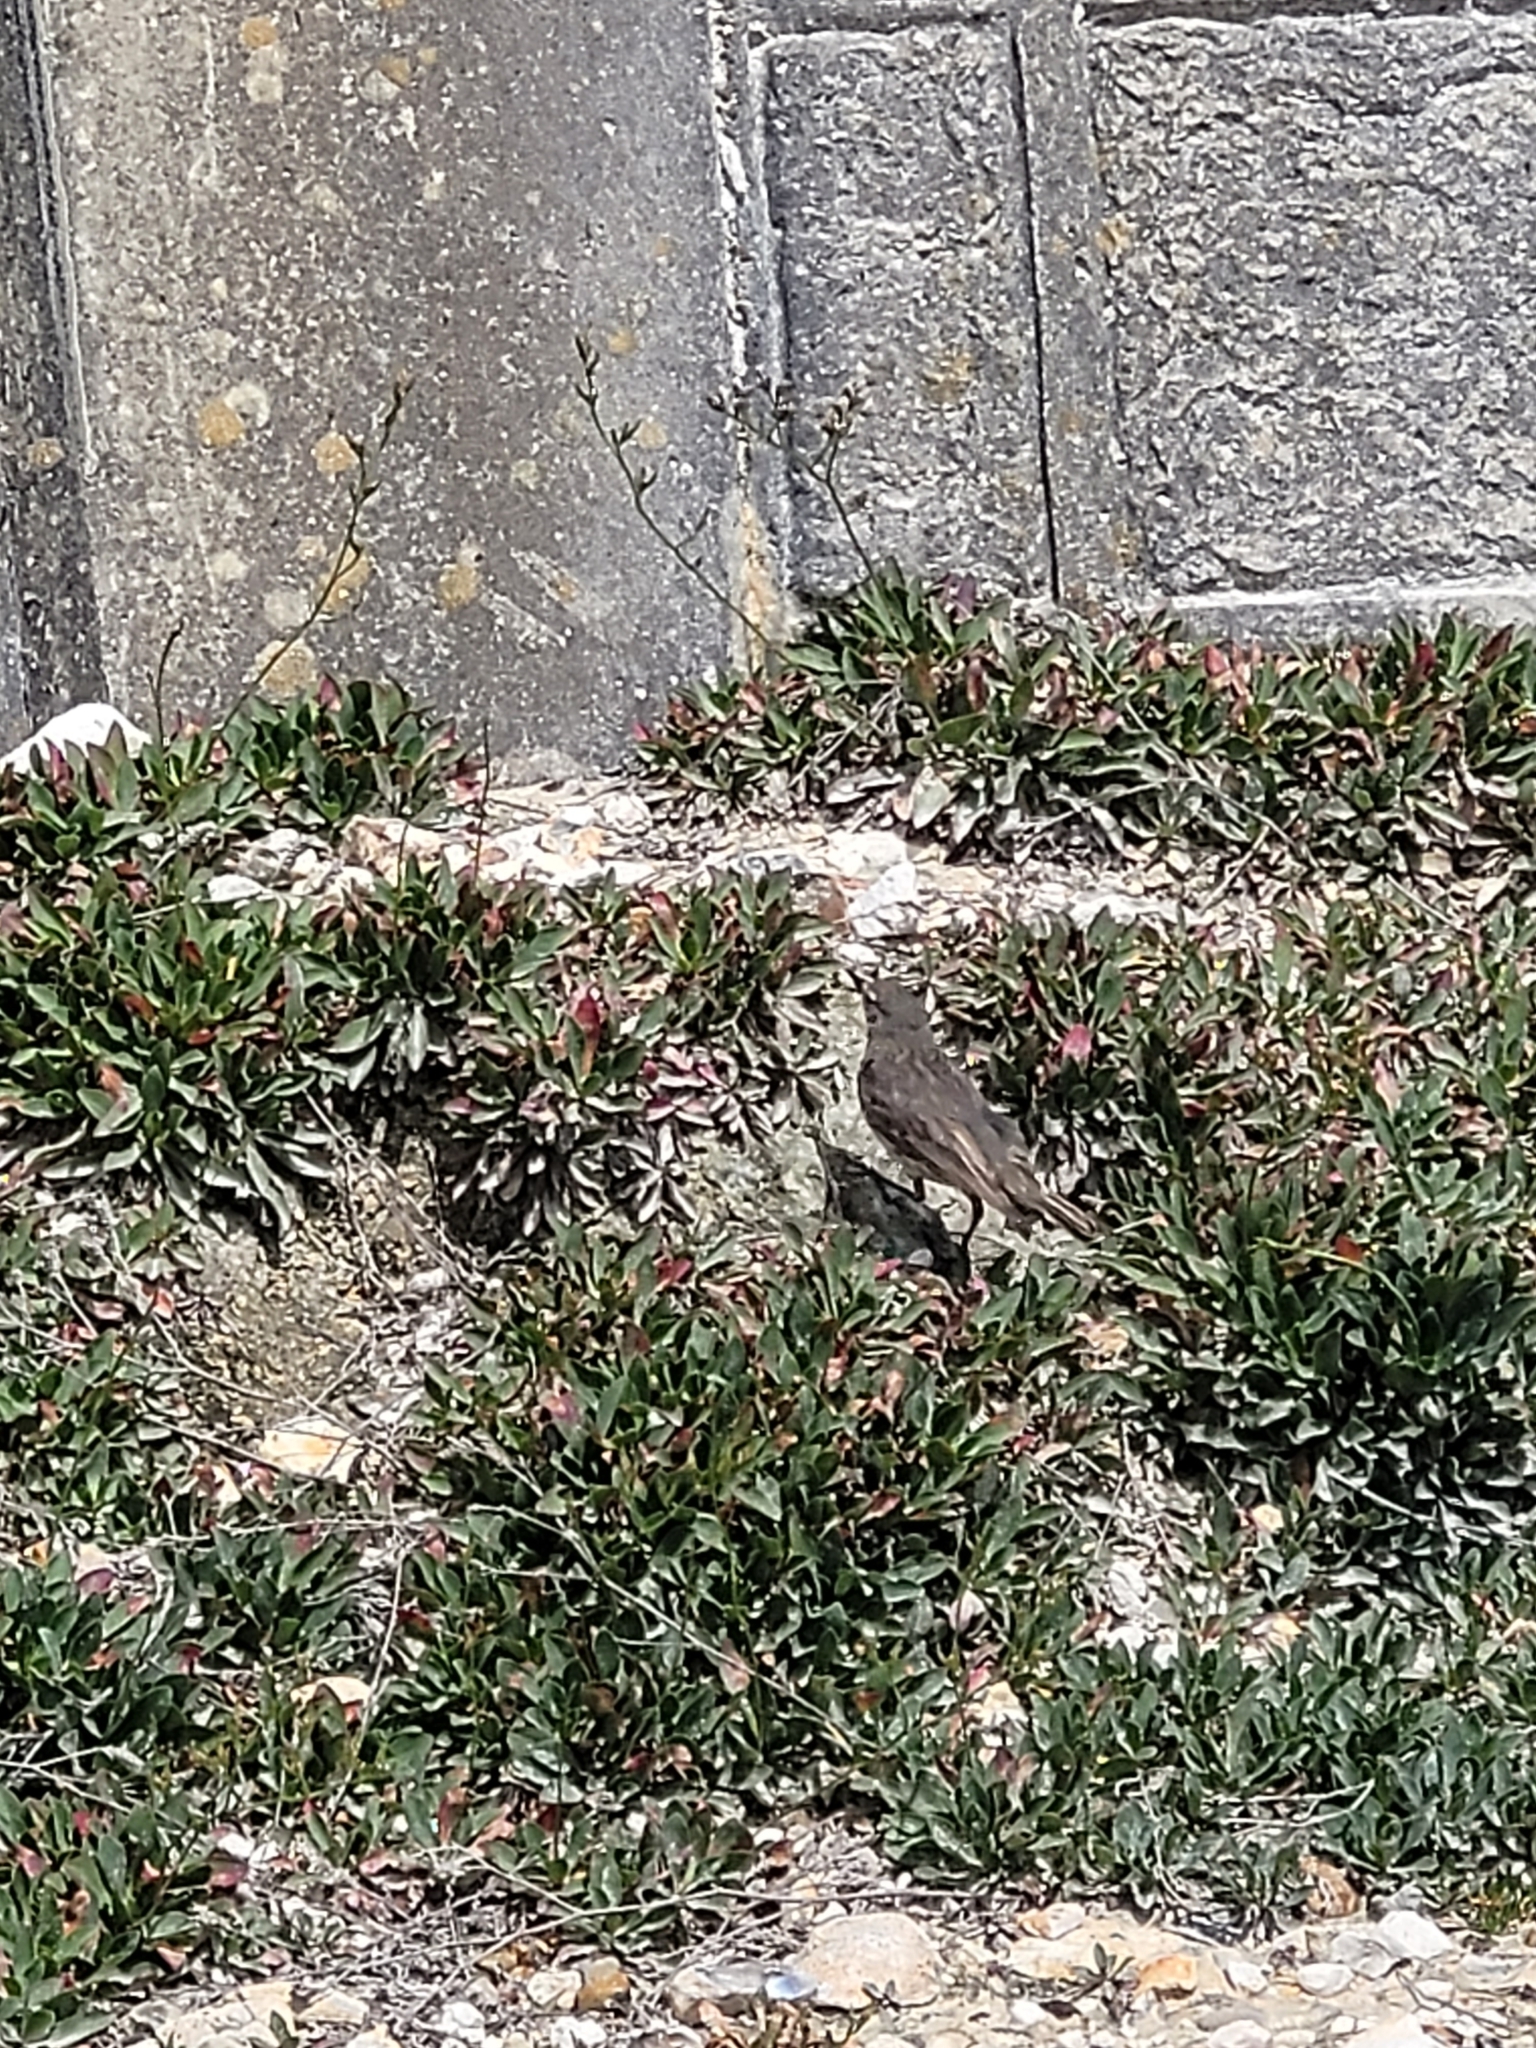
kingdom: Animalia
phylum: Chordata
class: Aves
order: Passeriformes
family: Motacillidae
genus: Anthus
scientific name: Anthus petrosus
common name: Eurasian rock pipit
